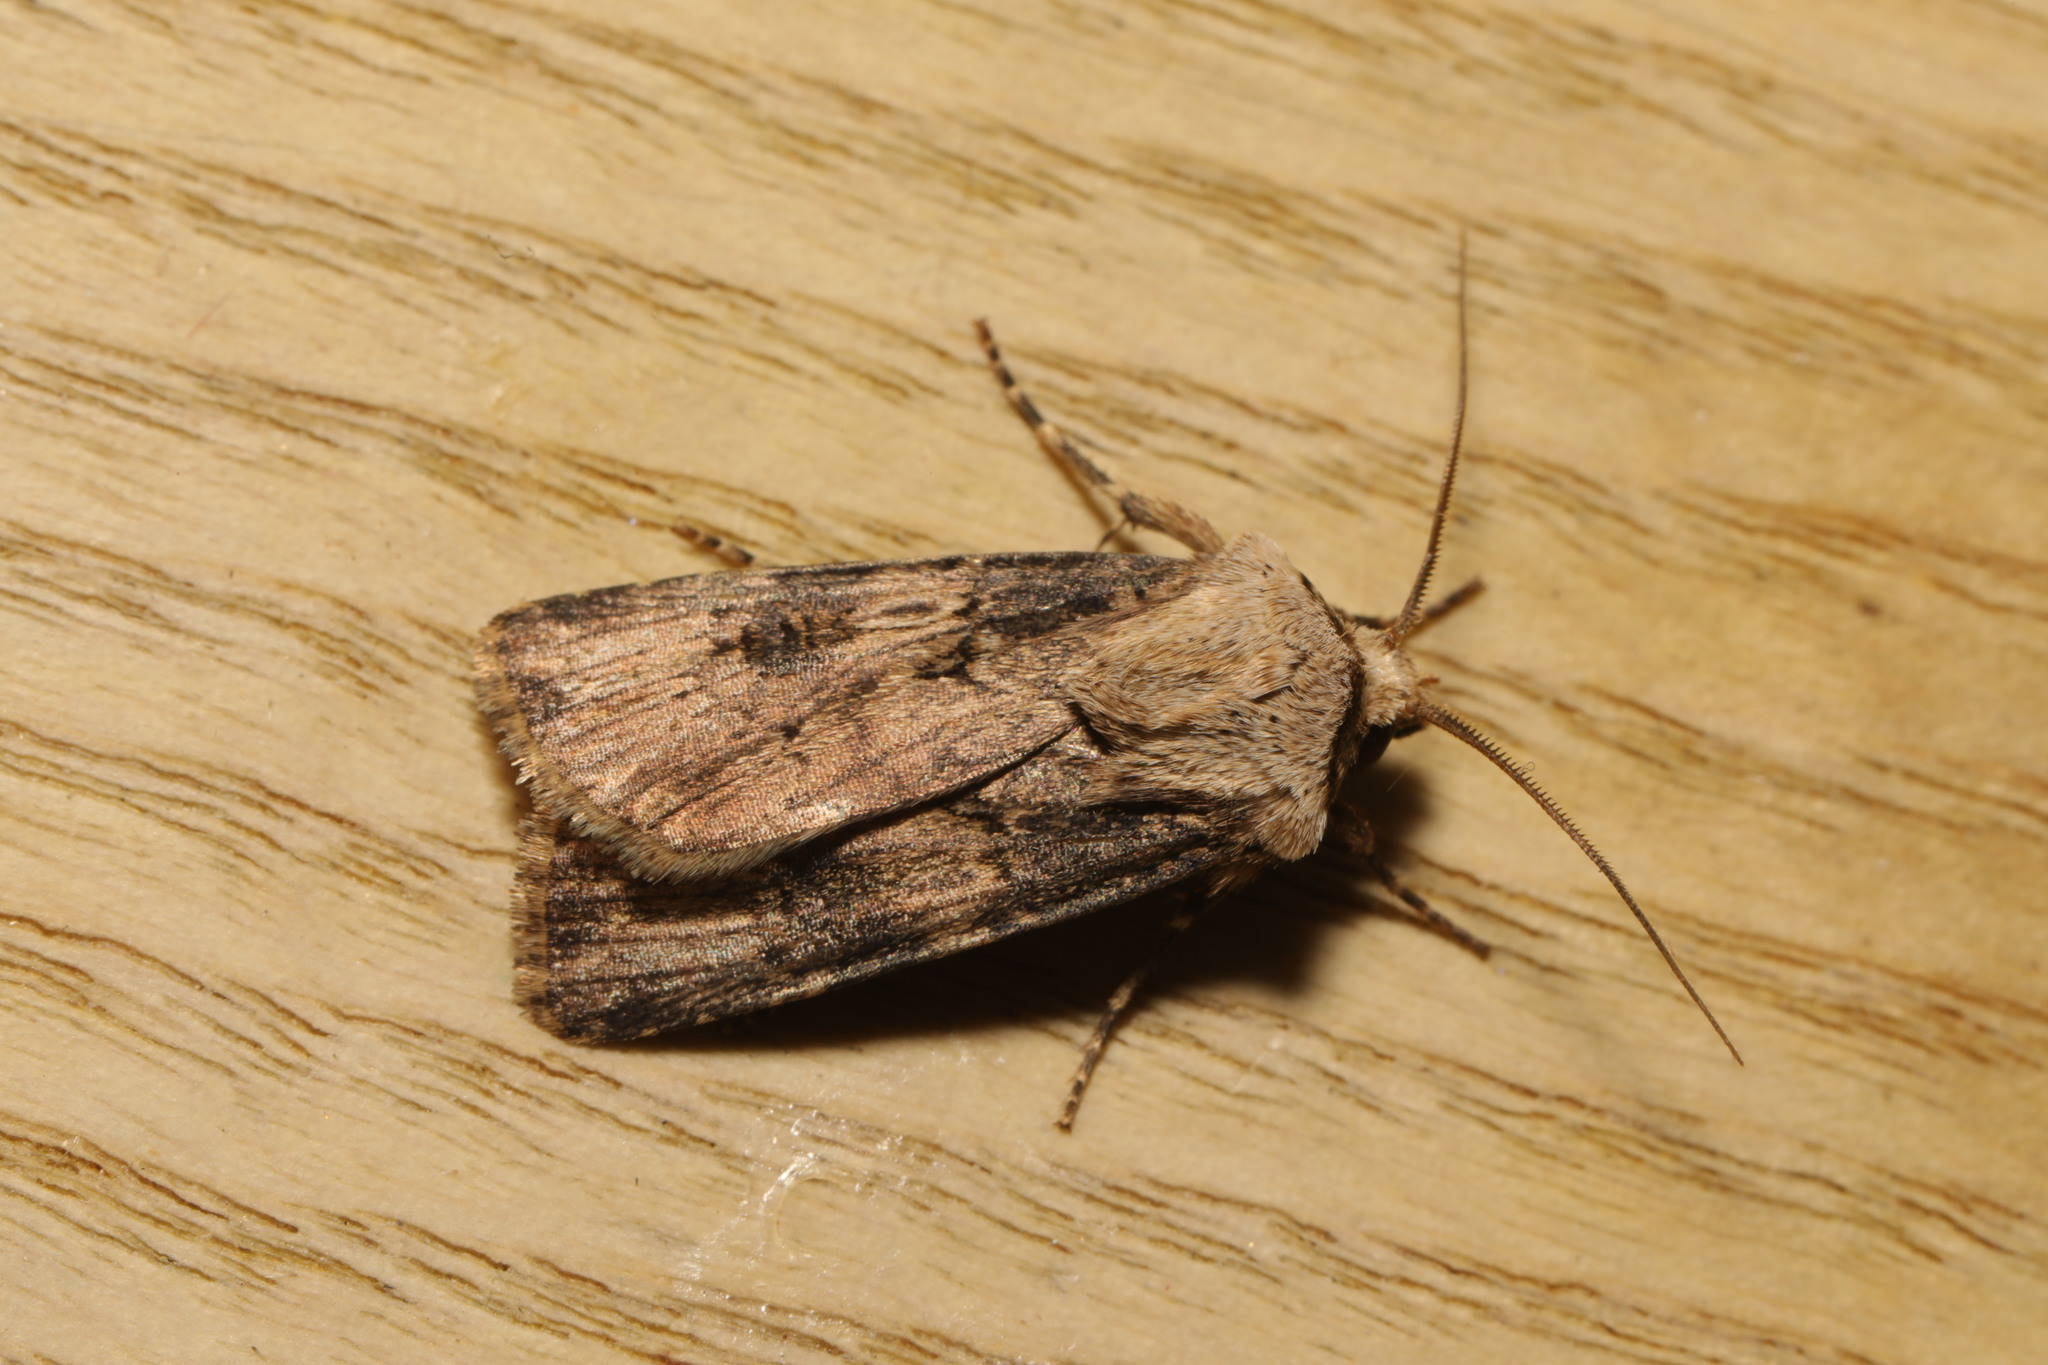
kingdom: Animalia
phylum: Arthropoda
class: Insecta
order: Lepidoptera
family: Noctuidae
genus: Agrotis
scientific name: Agrotis puta
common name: Shuttle-shaped dart
